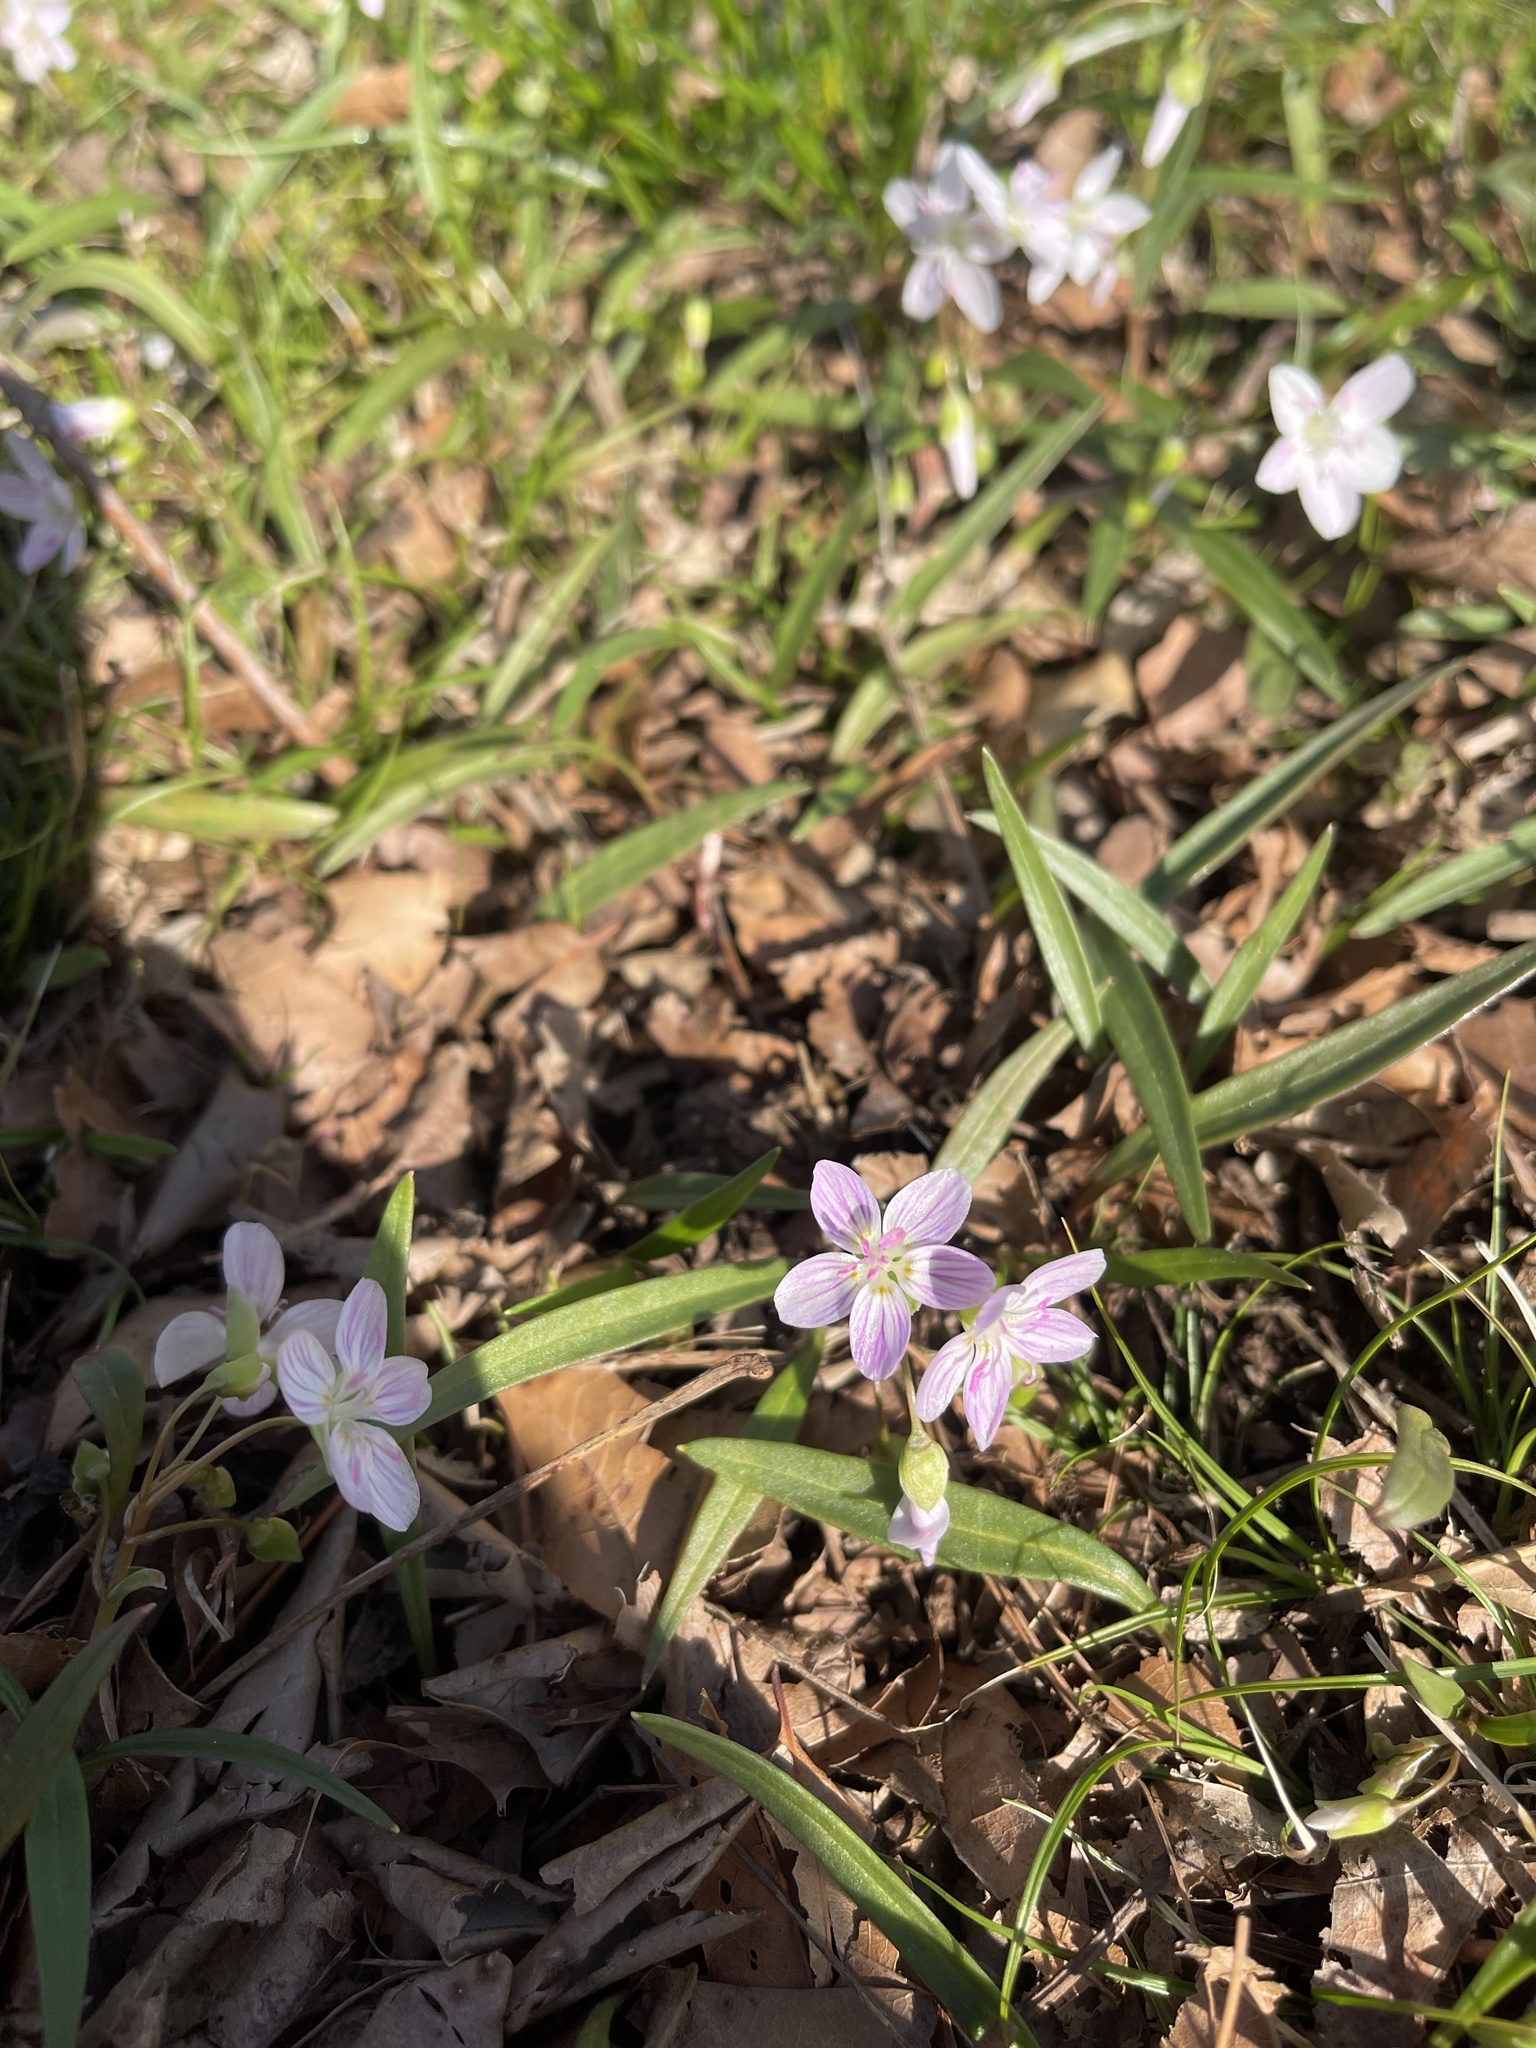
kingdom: Plantae
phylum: Tracheophyta
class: Magnoliopsida
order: Caryophyllales
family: Montiaceae
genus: Claytonia
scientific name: Claytonia virginica
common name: Virginia springbeauty
